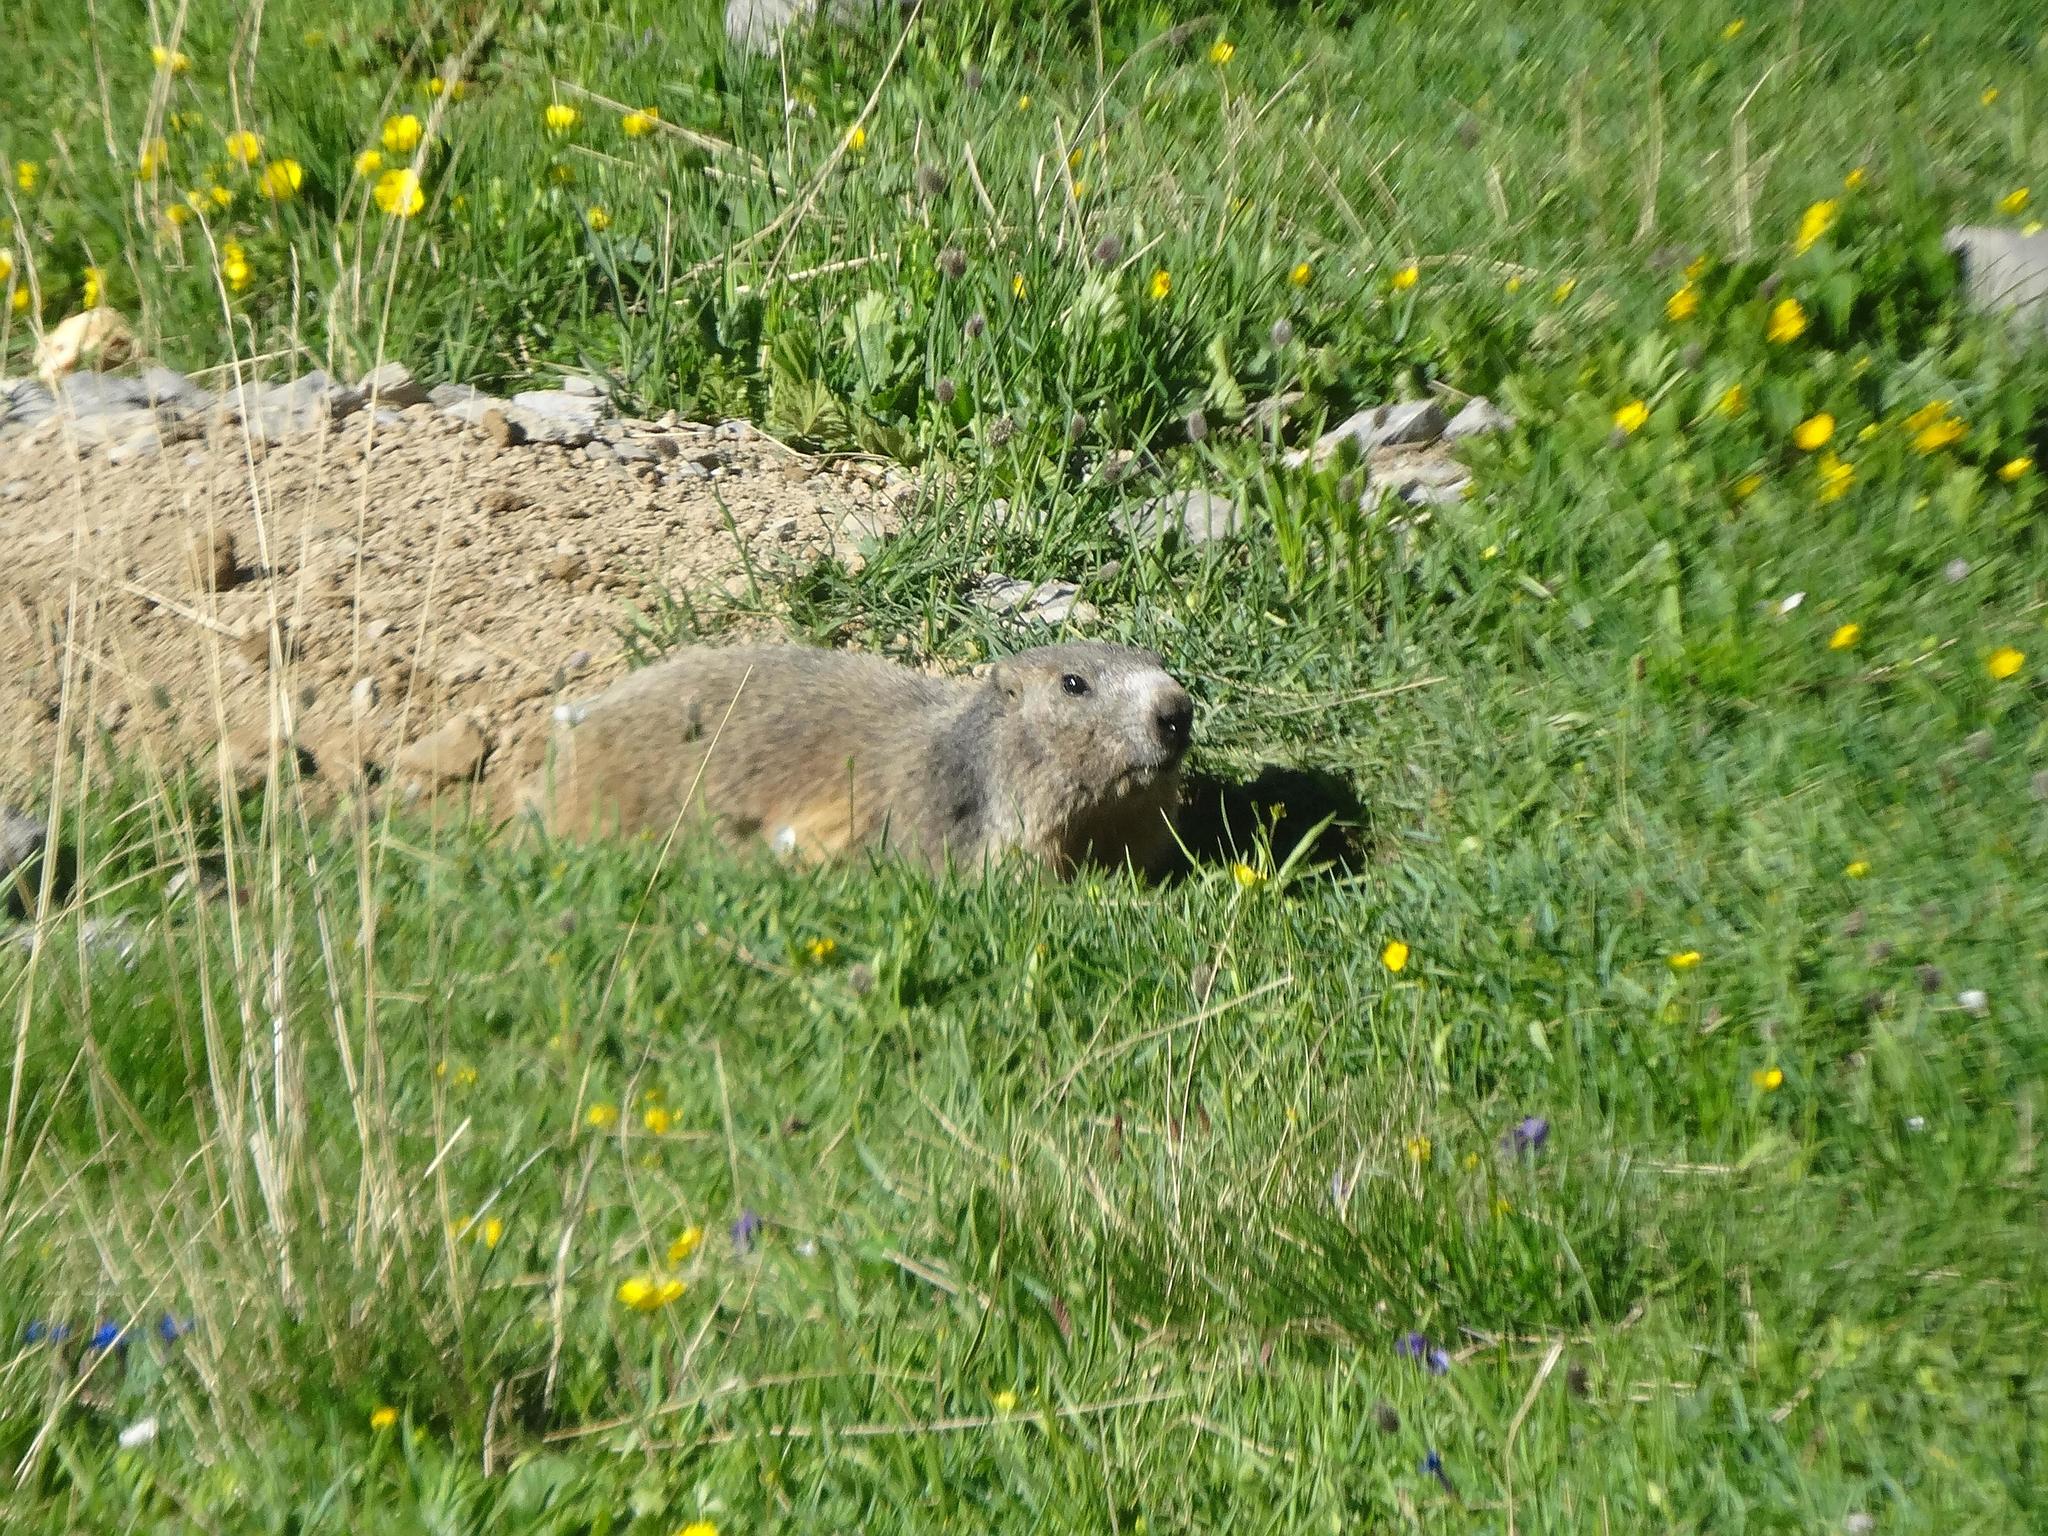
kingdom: Animalia
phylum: Chordata
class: Mammalia
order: Rodentia
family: Sciuridae
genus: Marmota
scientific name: Marmota marmota
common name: Alpine marmot
